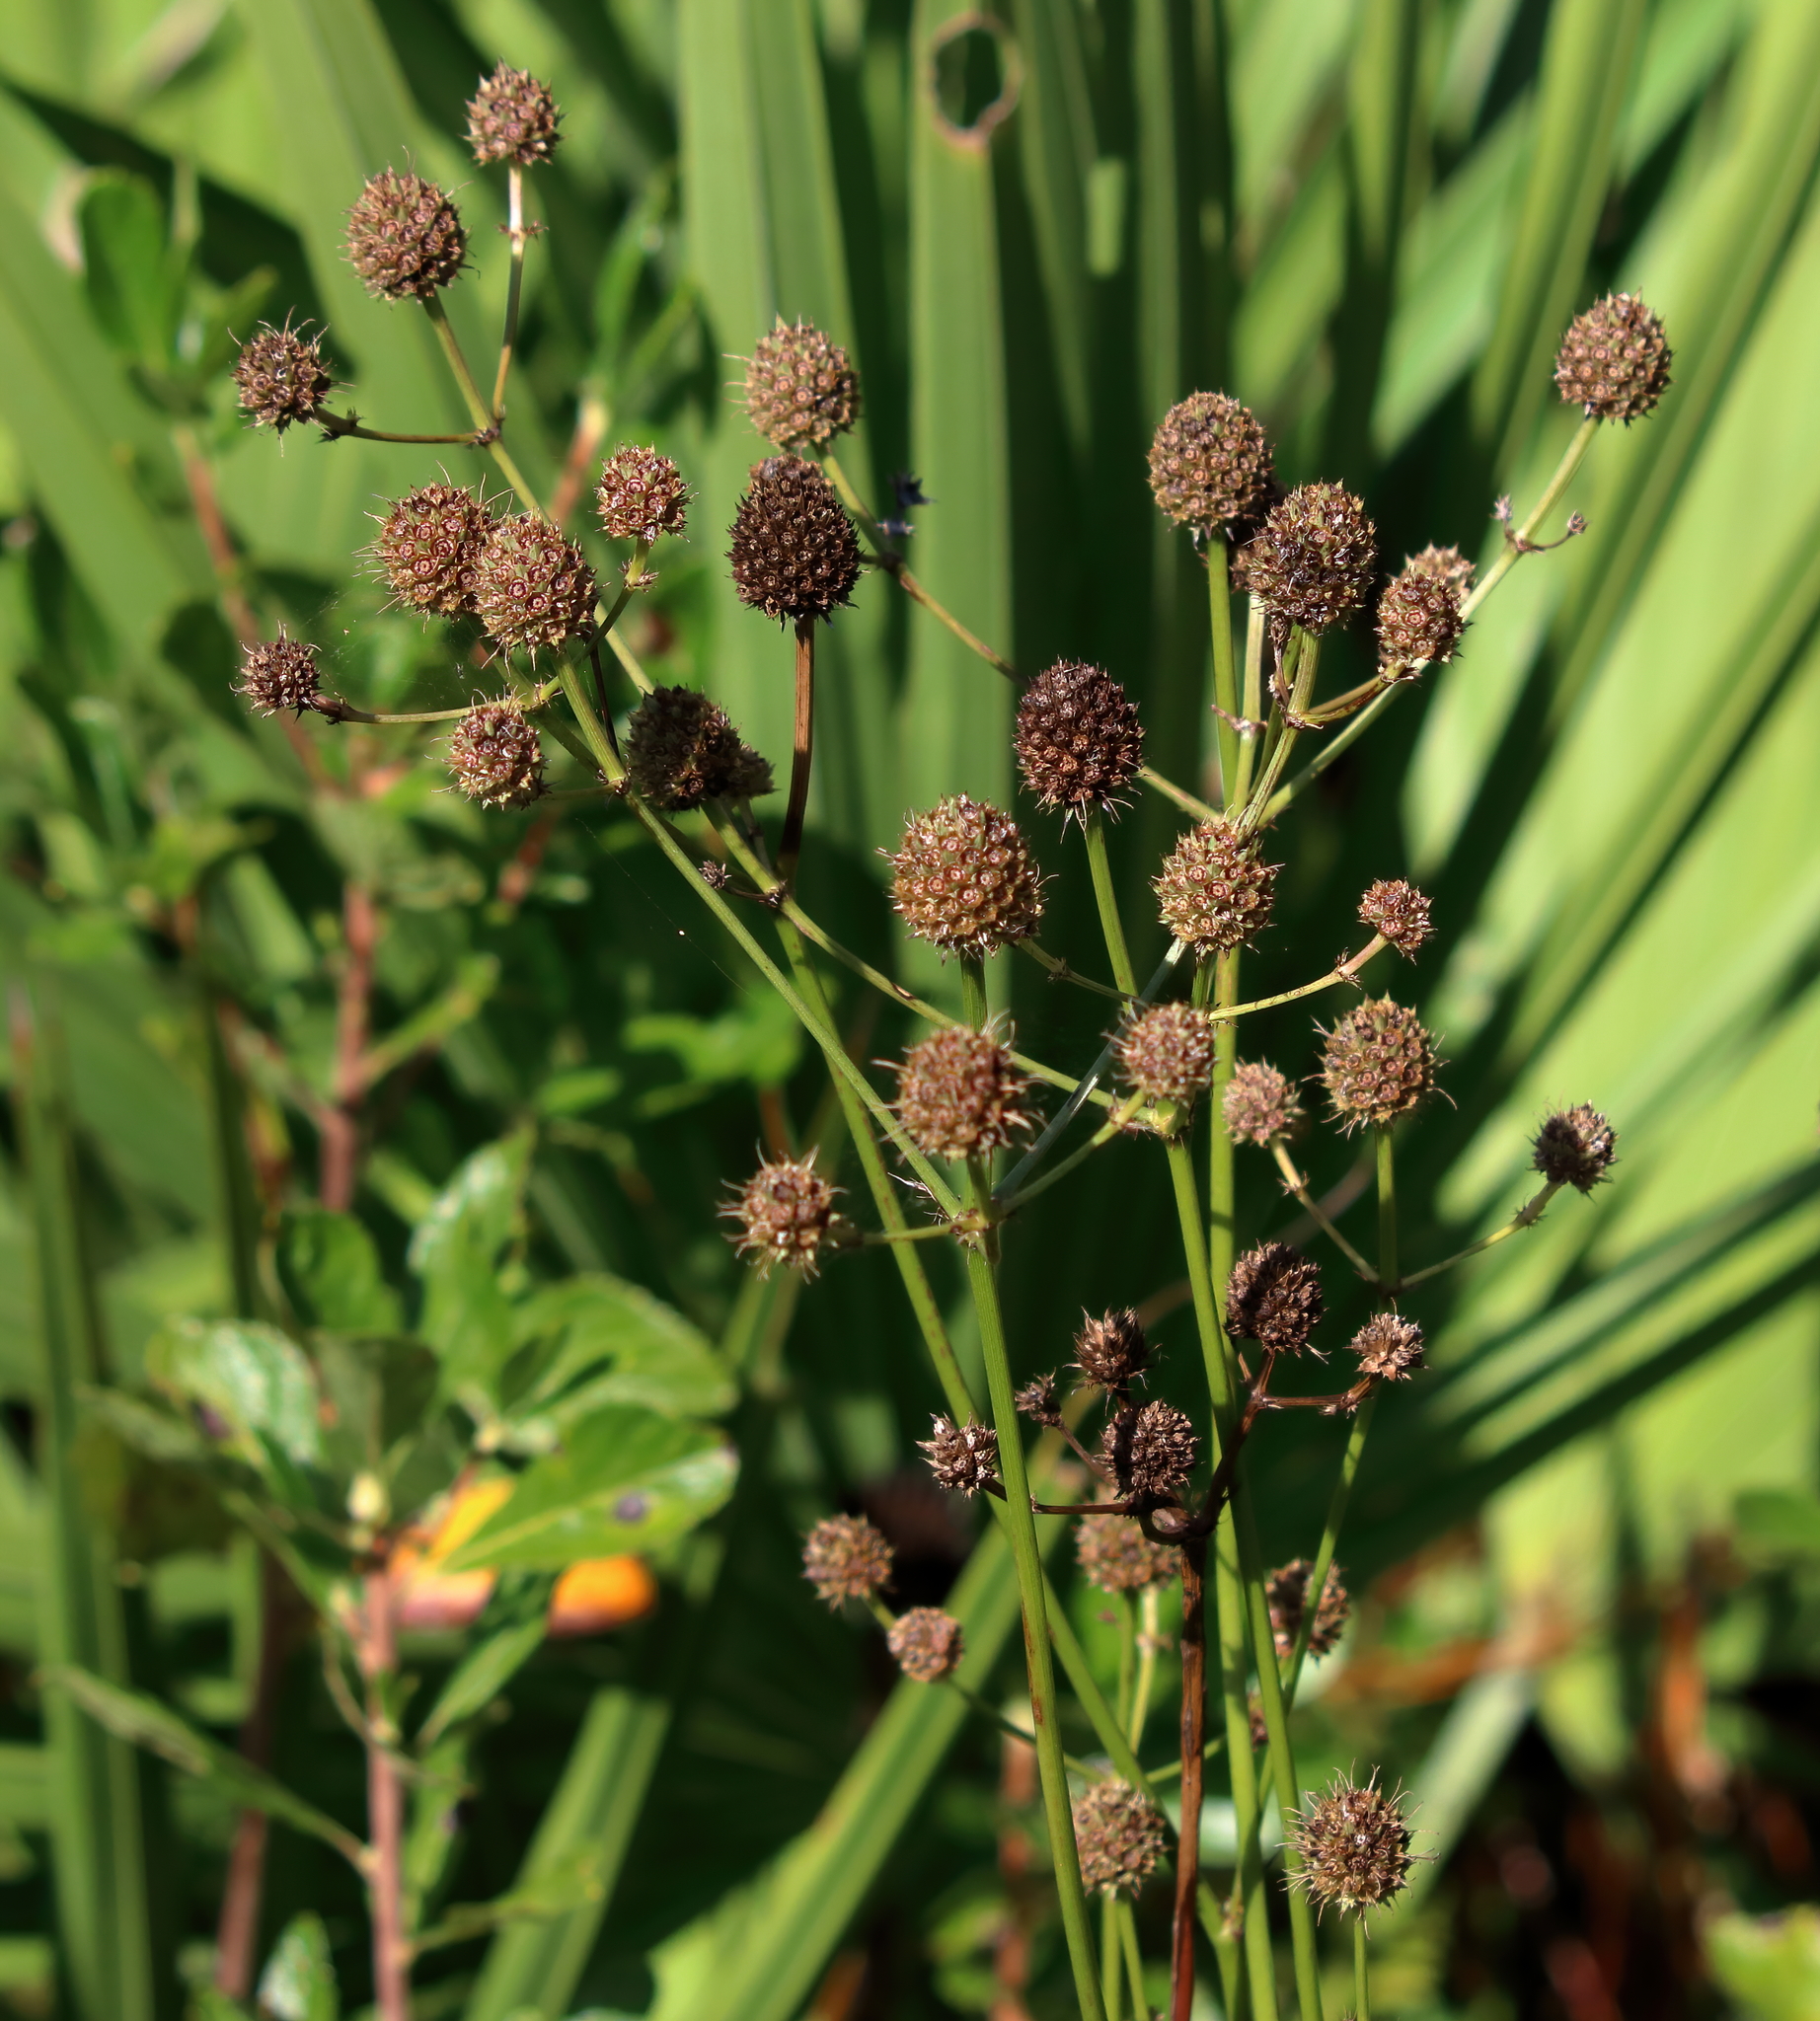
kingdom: Plantae
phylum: Tracheophyta
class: Magnoliopsida
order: Apiales
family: Apiaceae
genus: Eryngium
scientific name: Eryngium yuccifolium
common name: Button eryngo
